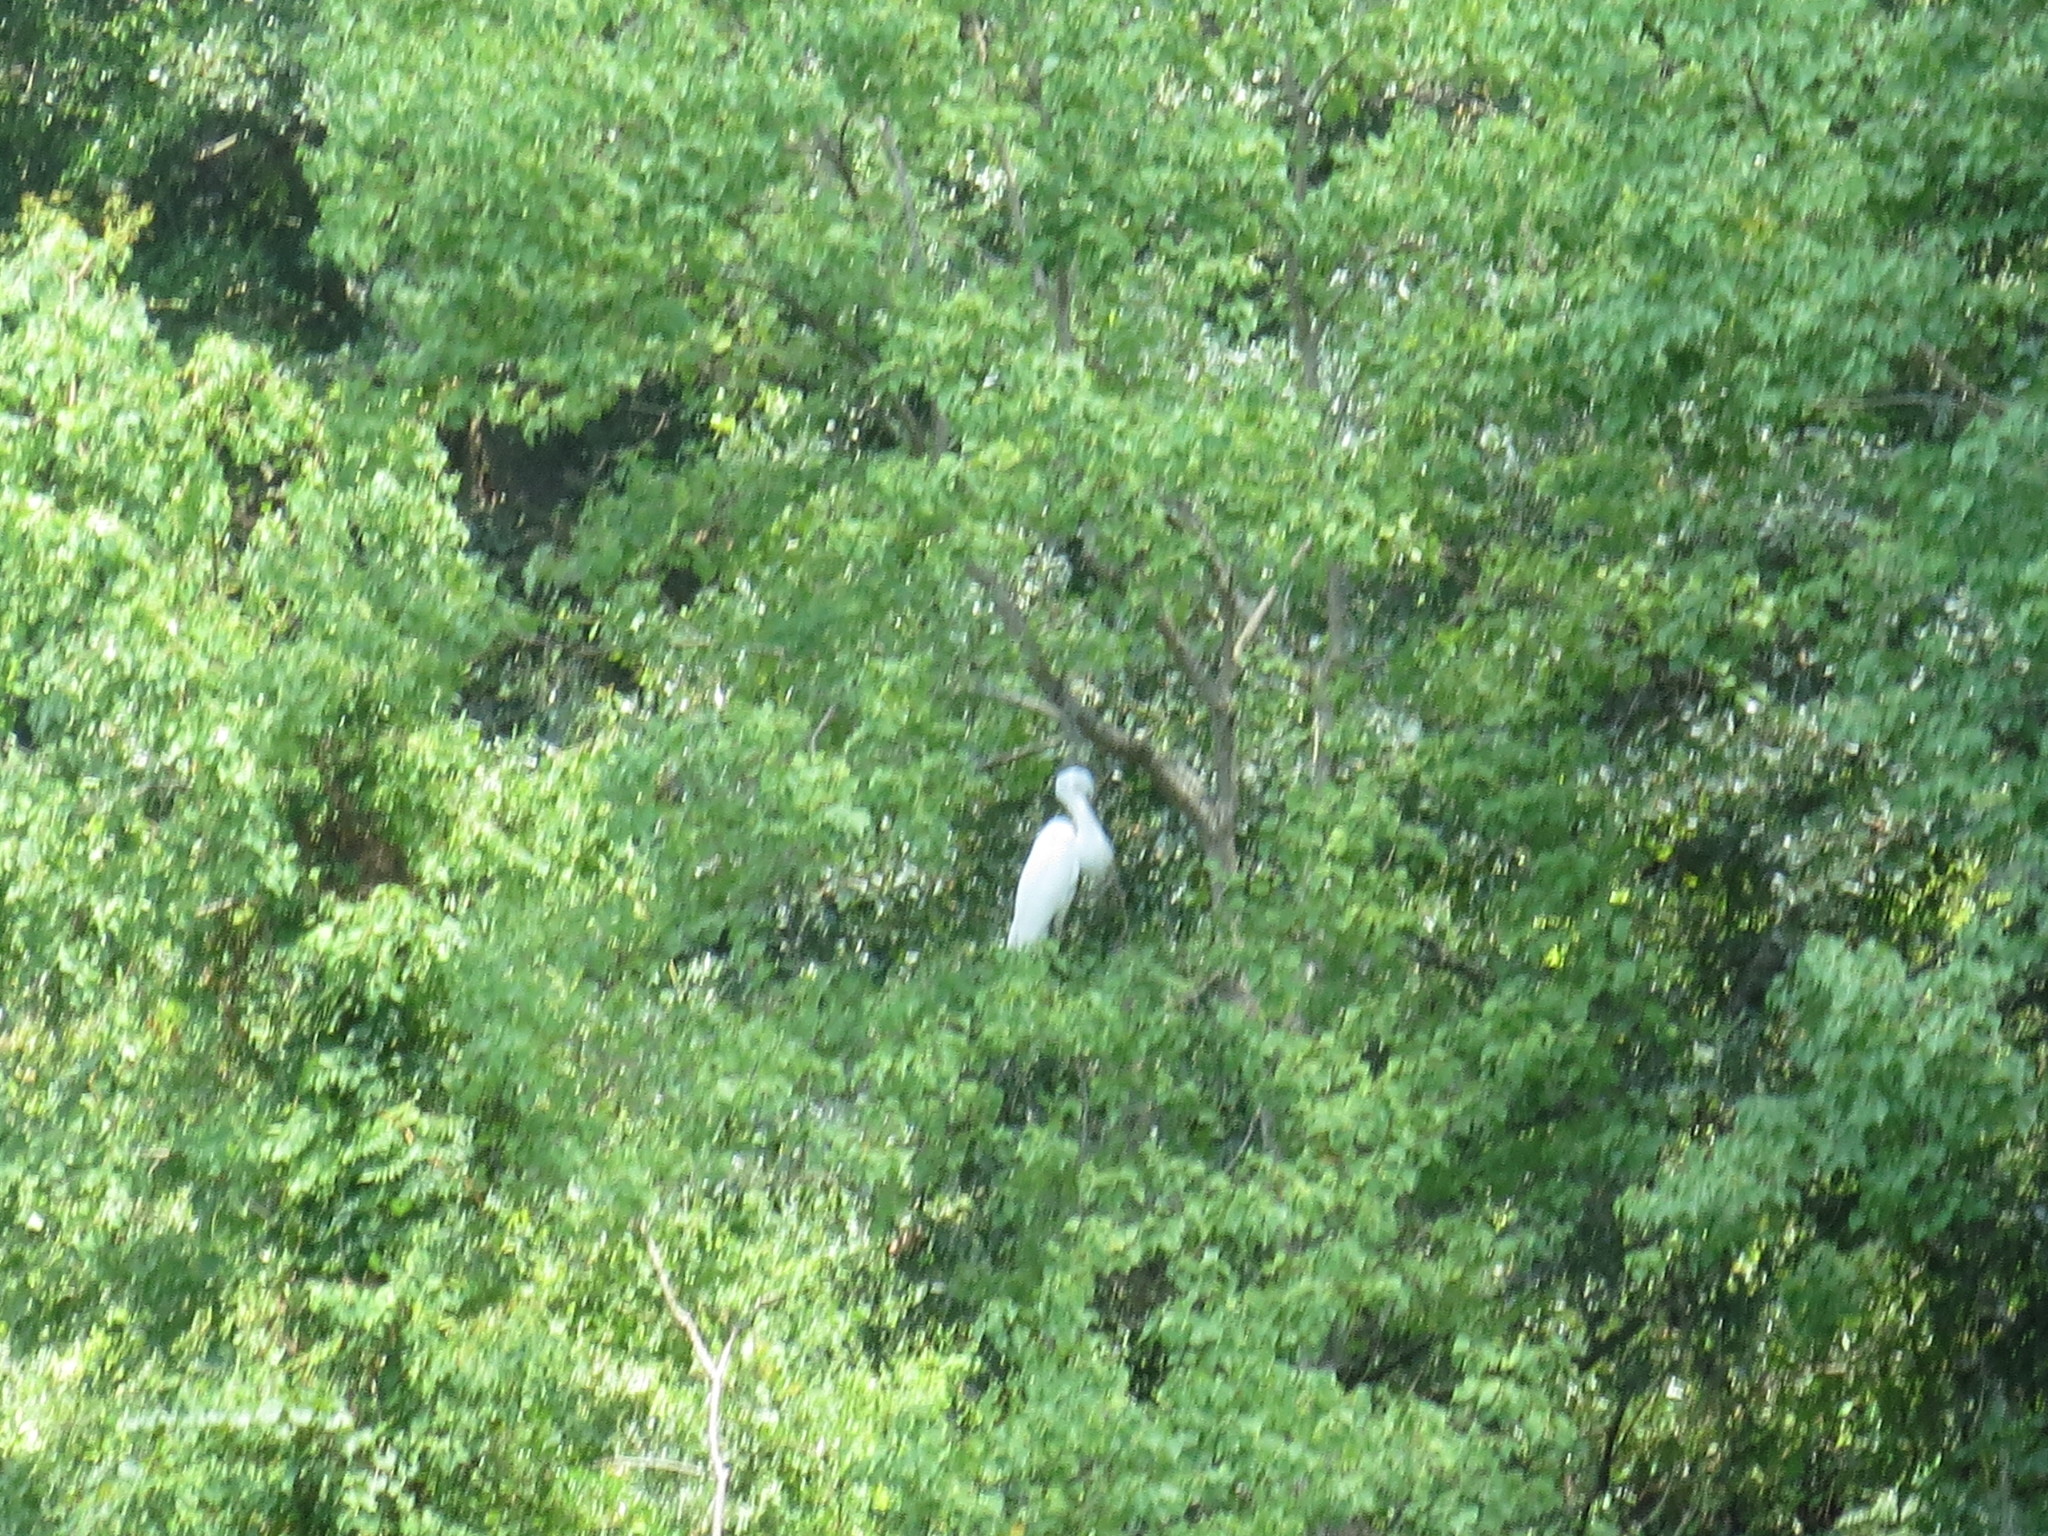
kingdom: Animalia
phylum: Chordata
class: Aves
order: Pelecaniformes
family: Ardeidae
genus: Ardea
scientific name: Ardea alba
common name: Great egret
